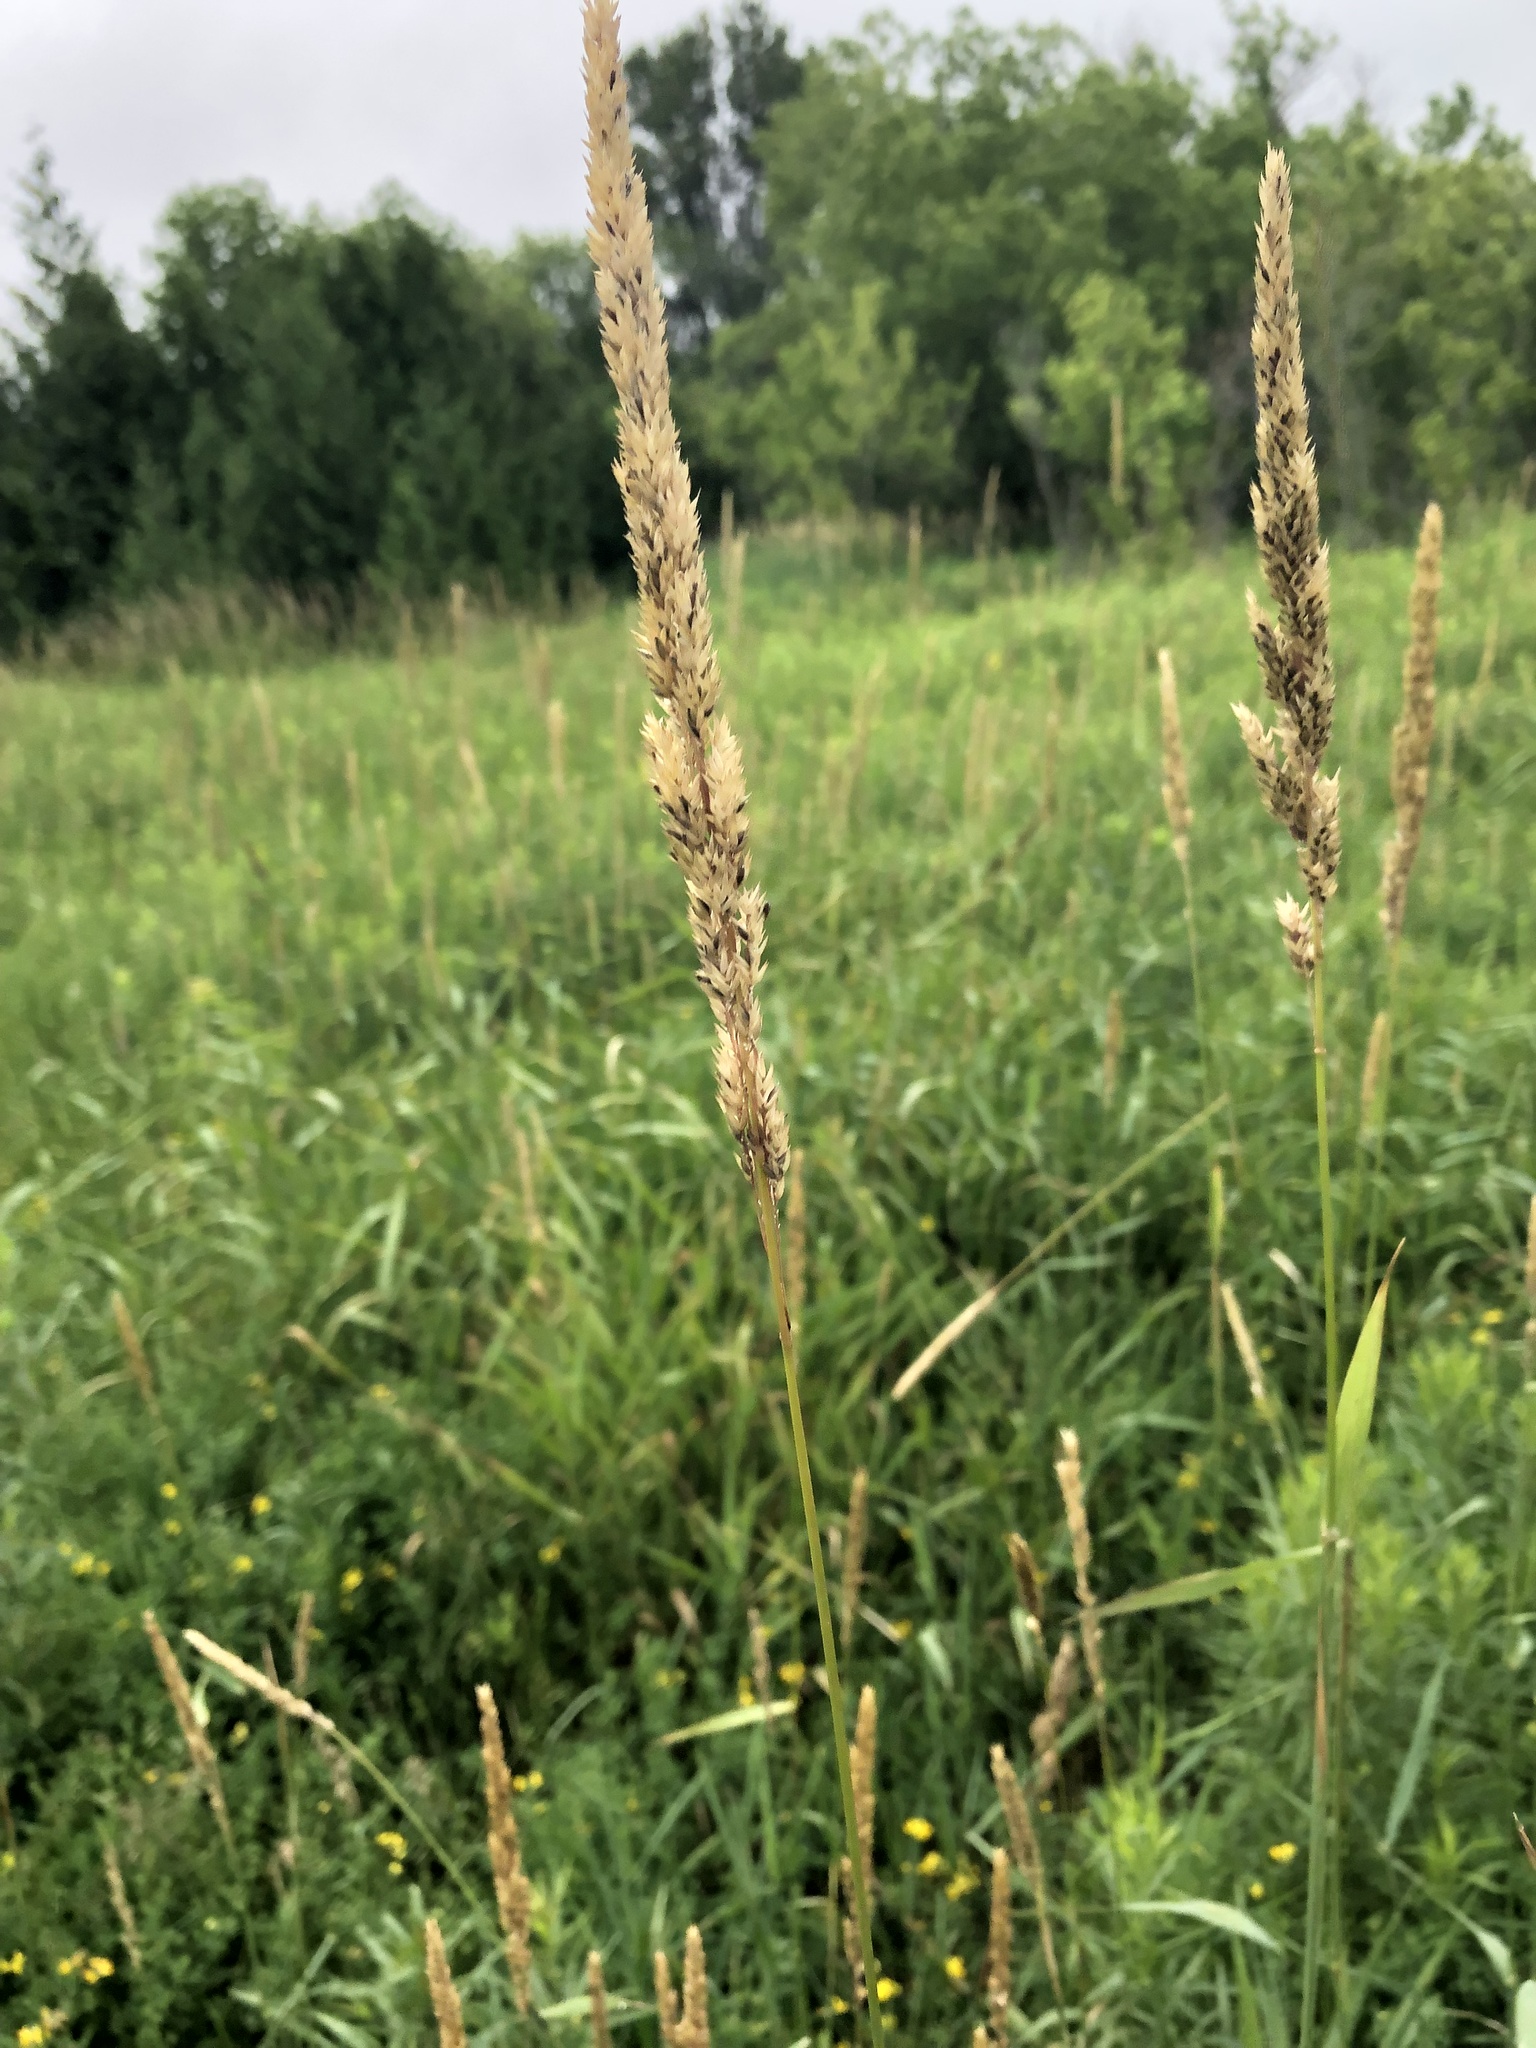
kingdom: Plantae
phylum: Tracheophyta
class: Liliopsida
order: Poales
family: Poaceae
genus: Phalaris
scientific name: Phalaris arundinacea
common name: Reed canary-grass
